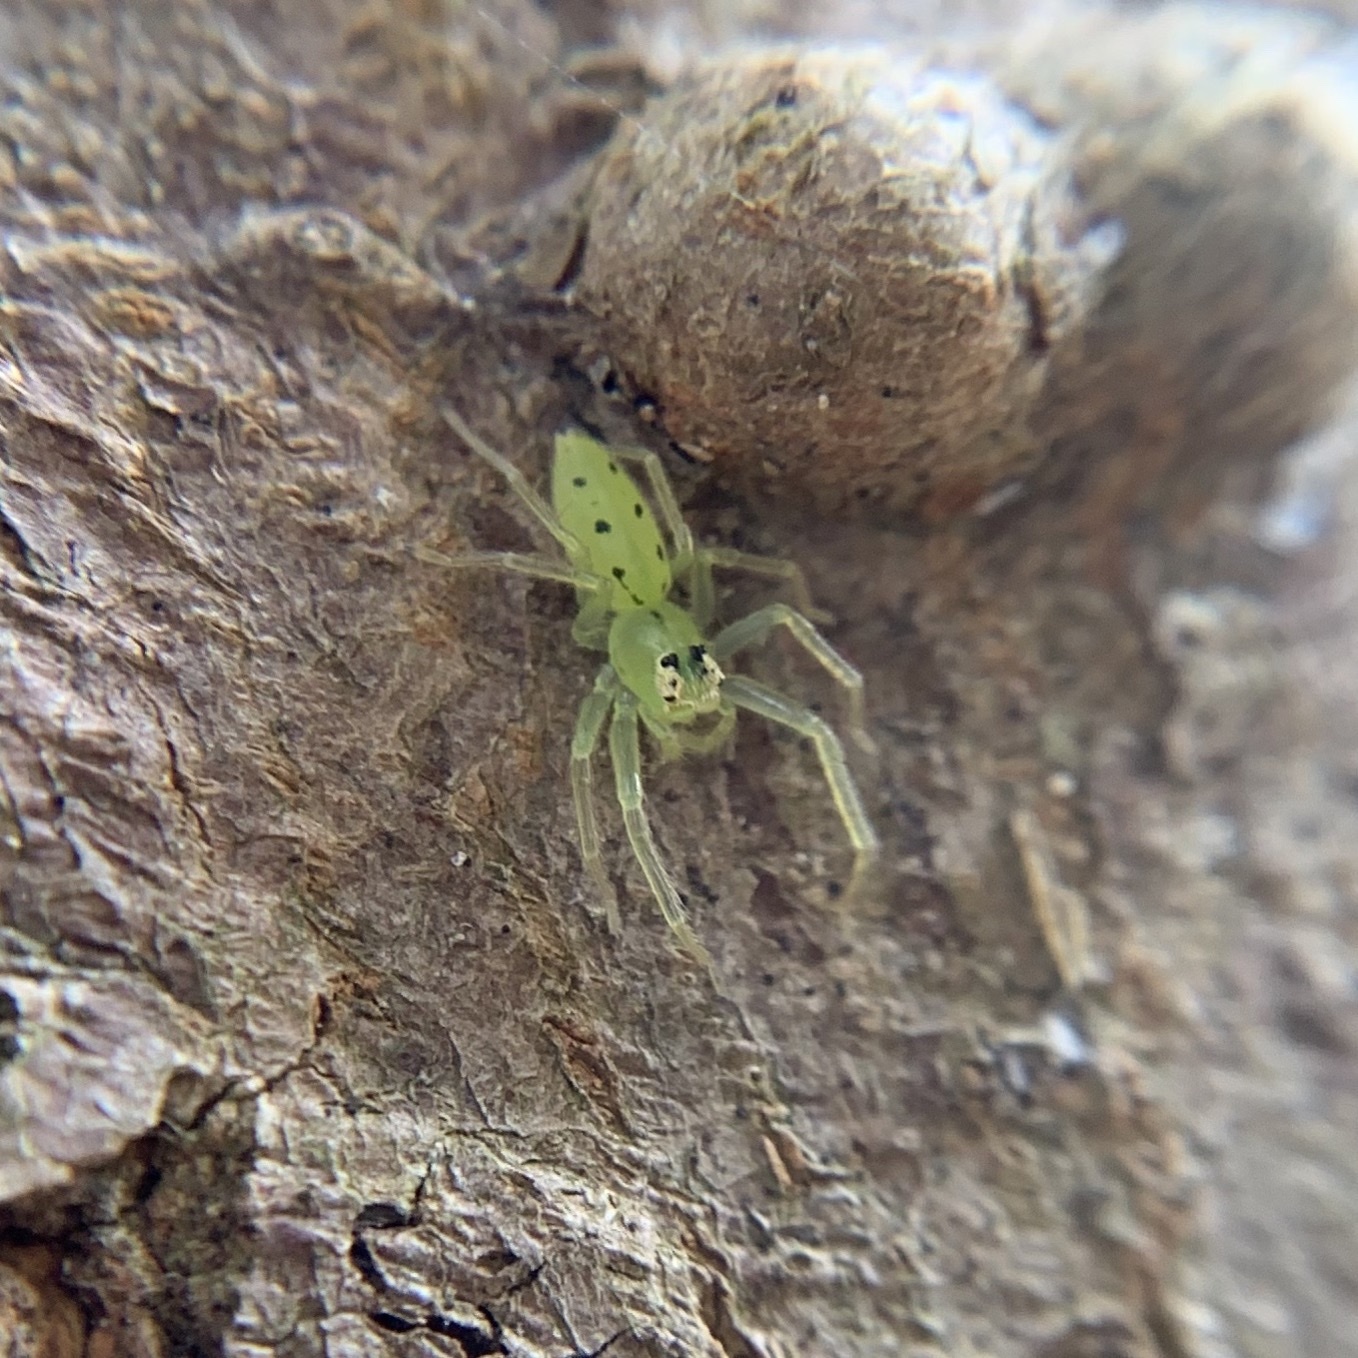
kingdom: Animalia
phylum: Arthropoda
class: Arachnida
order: Araneae
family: Salticidae
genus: Lyssomanes
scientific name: Lyssomanes viridis
